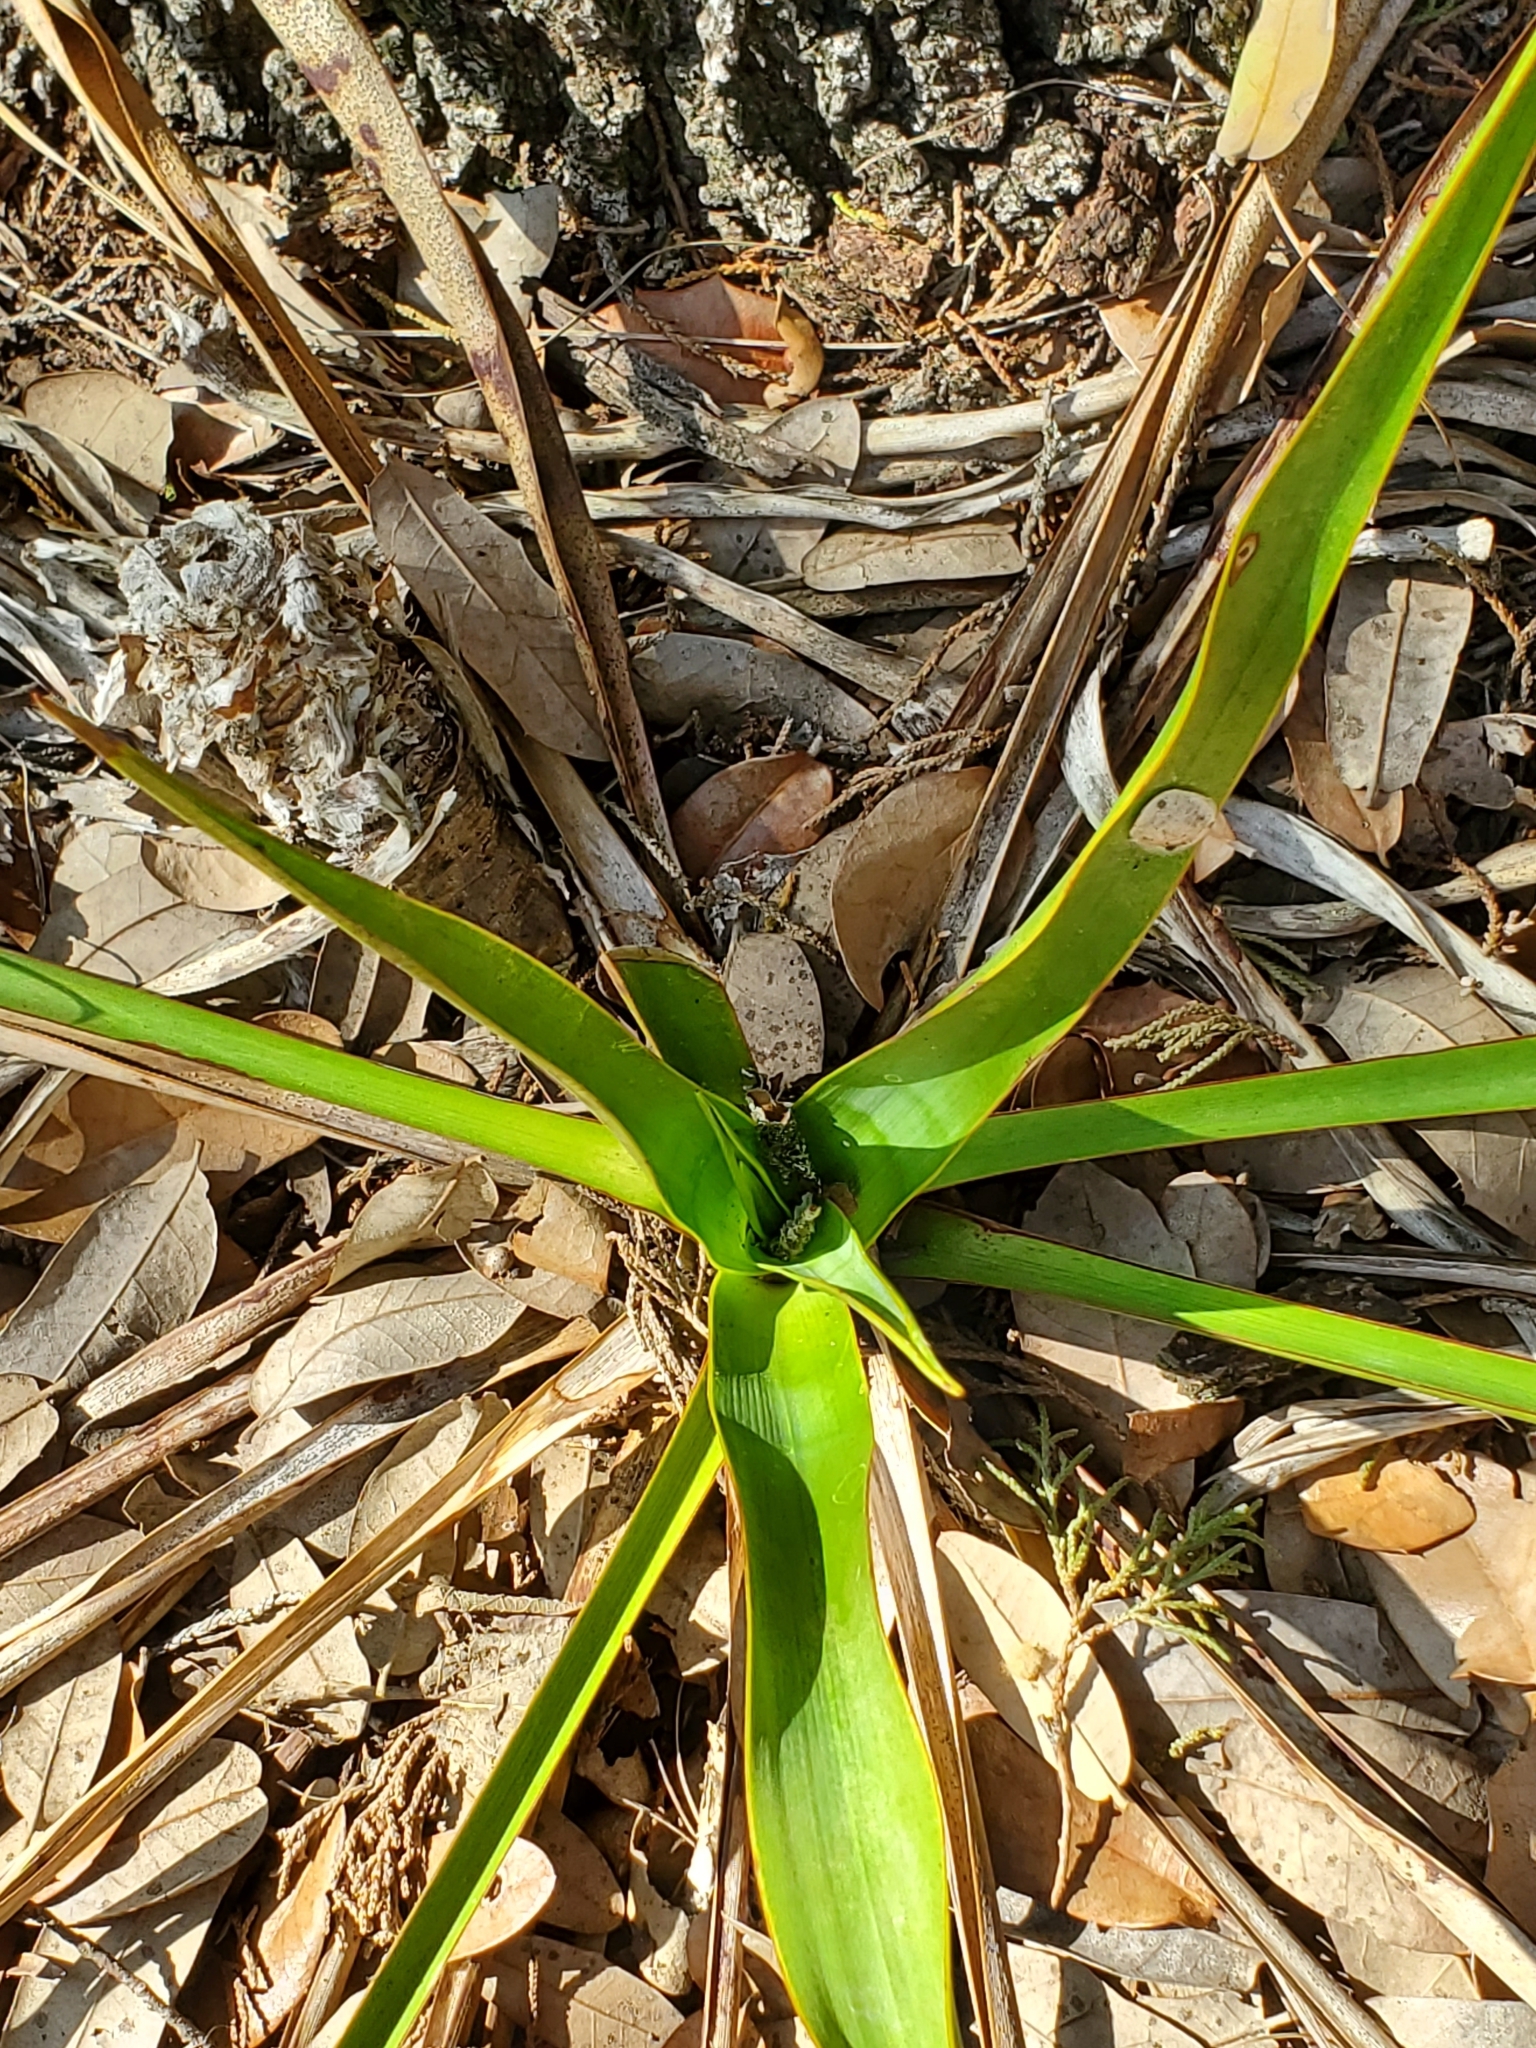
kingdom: Plantae
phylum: Tracheophyta
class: Liliopsida
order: Asparagales
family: Asparagaceae
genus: Yucca
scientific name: Yucca rupicola
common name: Twisted-leaf spanish-dagger
